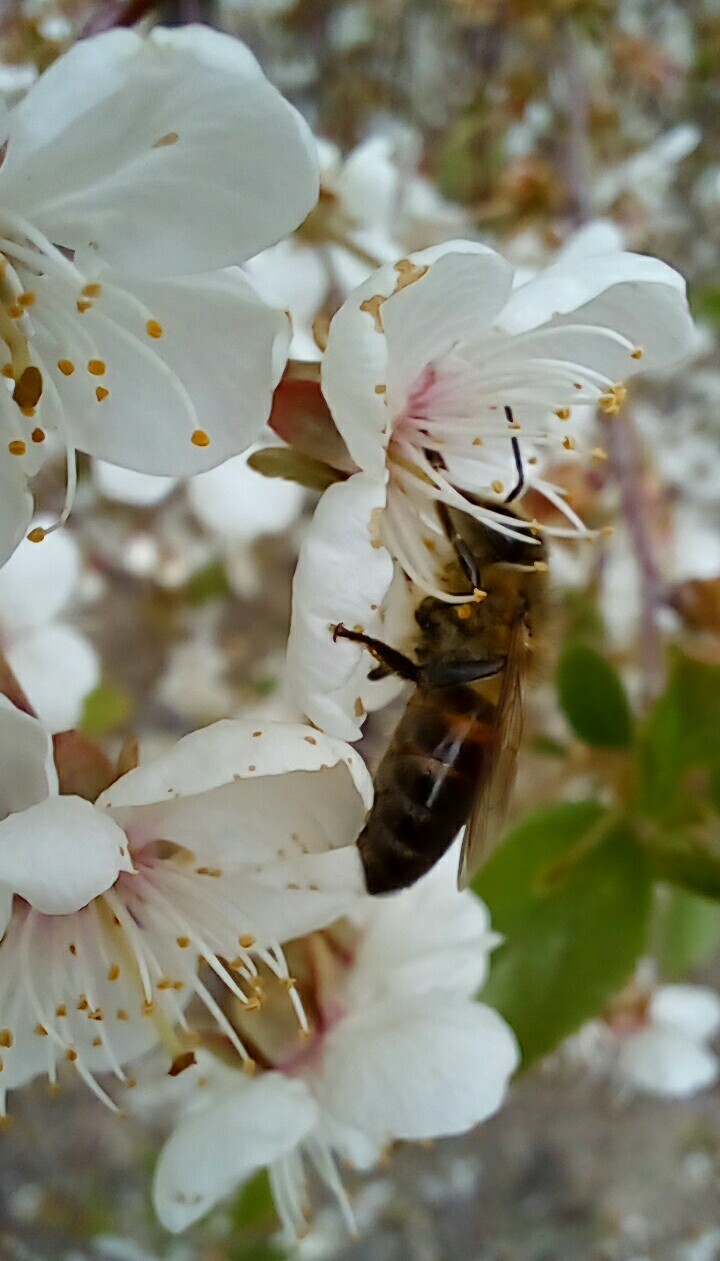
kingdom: Animalia
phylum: Arthropoda
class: Insecta
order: Hymenoptera
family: Apidae
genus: Apis
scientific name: Apis mellifera
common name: Honey bee
